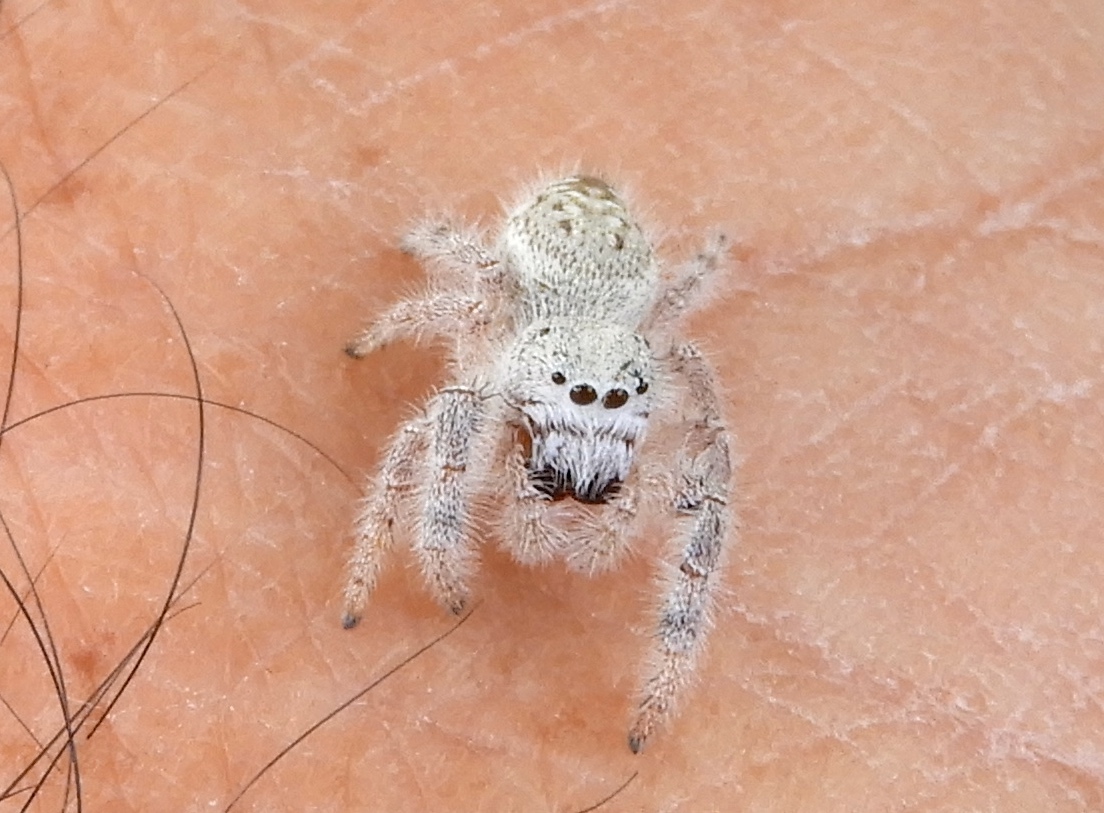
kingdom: Animalia
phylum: Arthropoda
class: Arachnida
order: Araneae
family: Salticidae
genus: Paraphidippus
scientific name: Paraphidippus fartilis
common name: Jumping spiders
